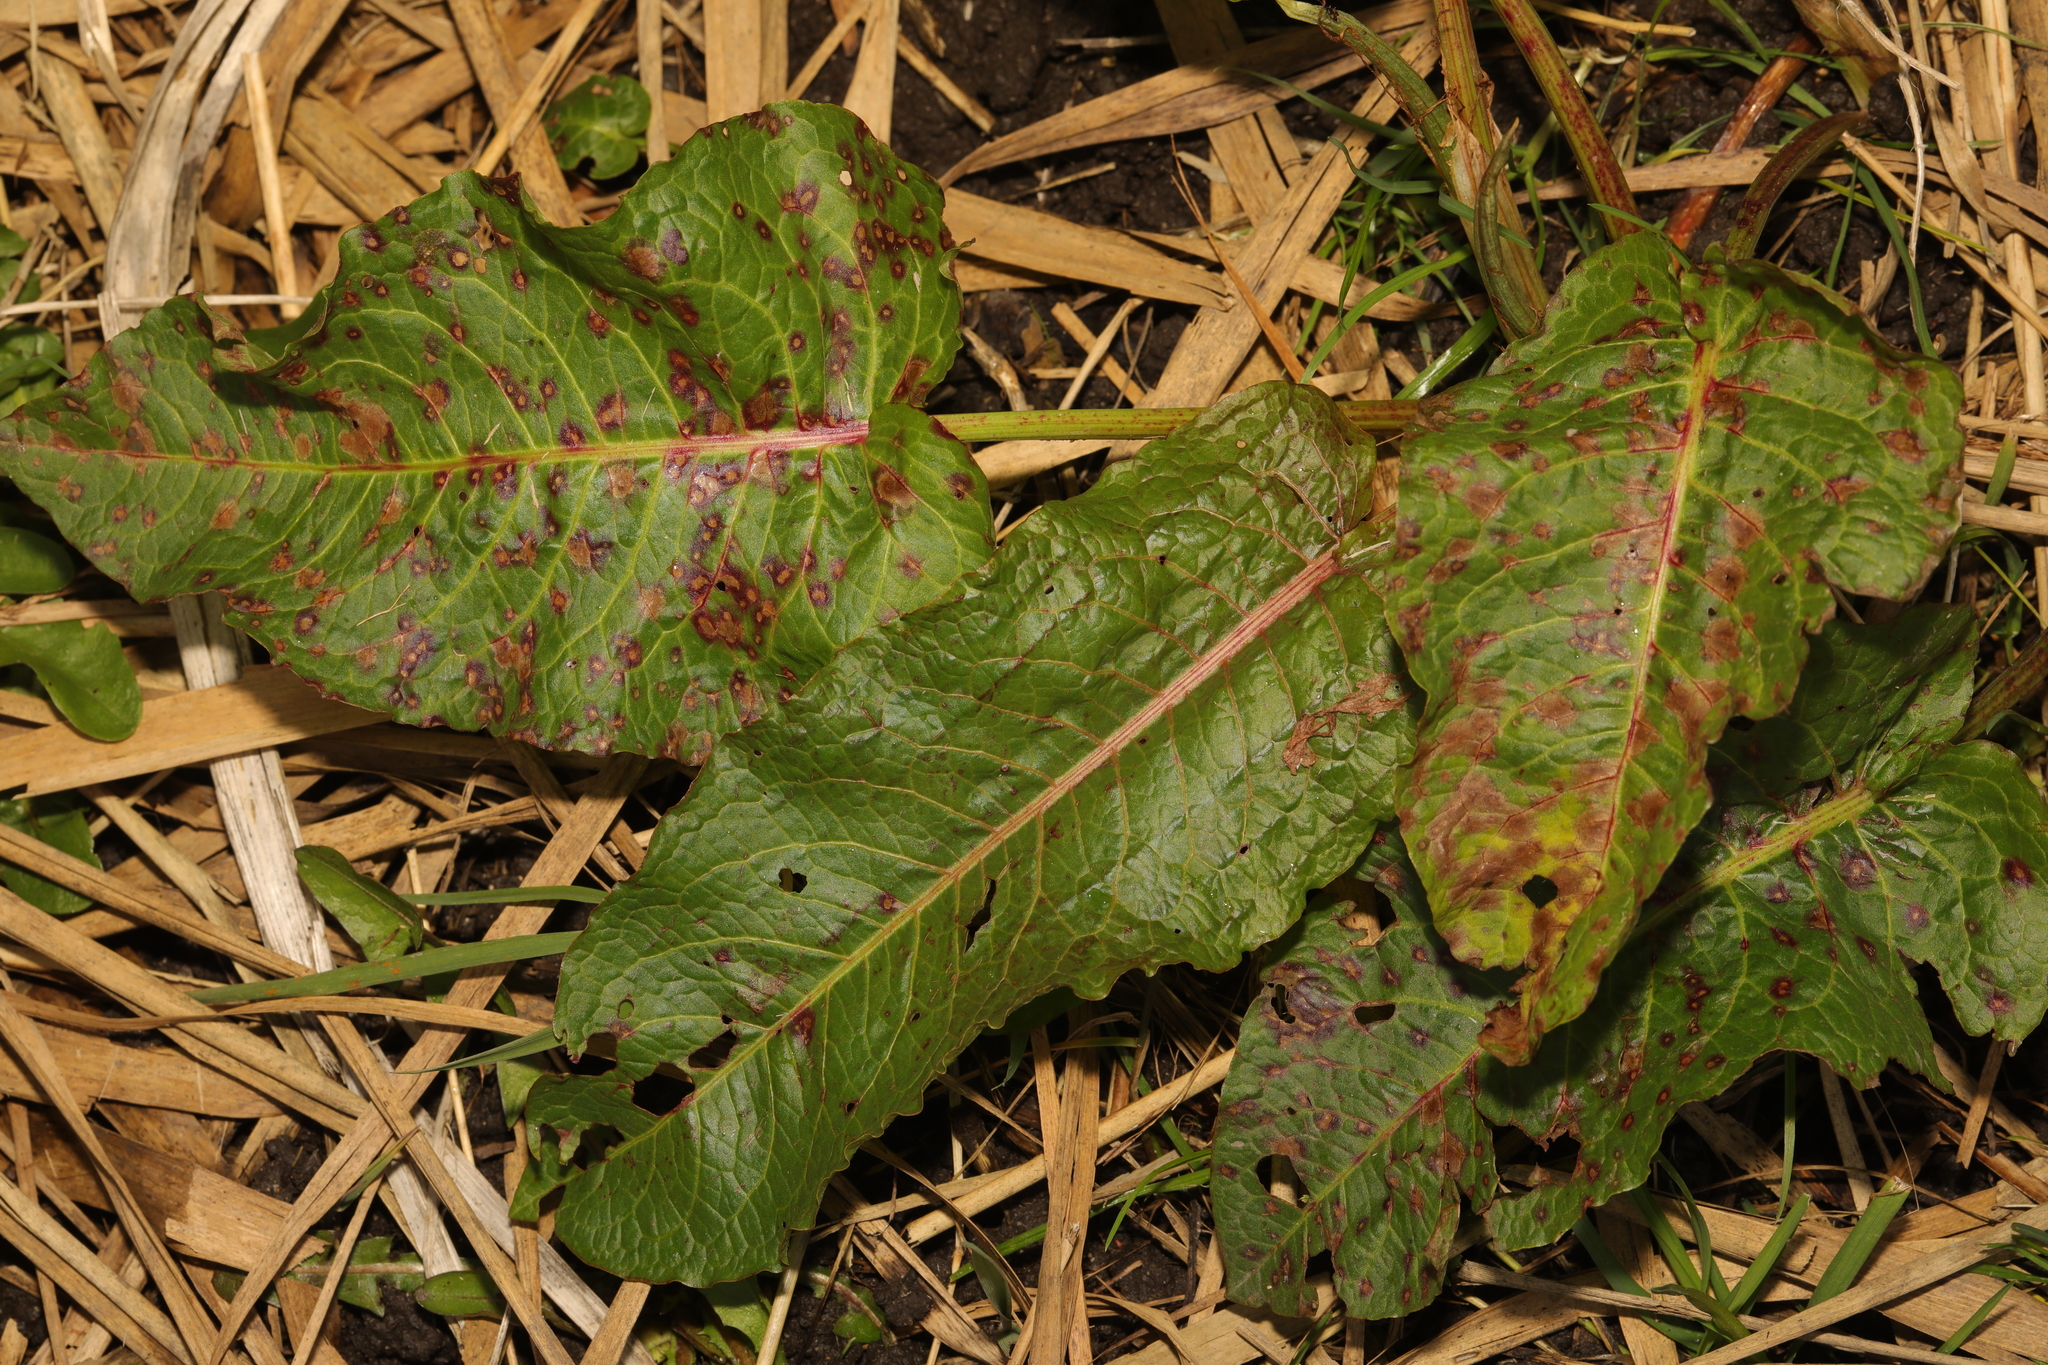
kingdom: Plantae
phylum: Tracheophyta
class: Magnoliopsida
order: Caryophyllales
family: Polygonaceae
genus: Rumex
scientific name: Rumex obtusifolius
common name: Bitter dock
